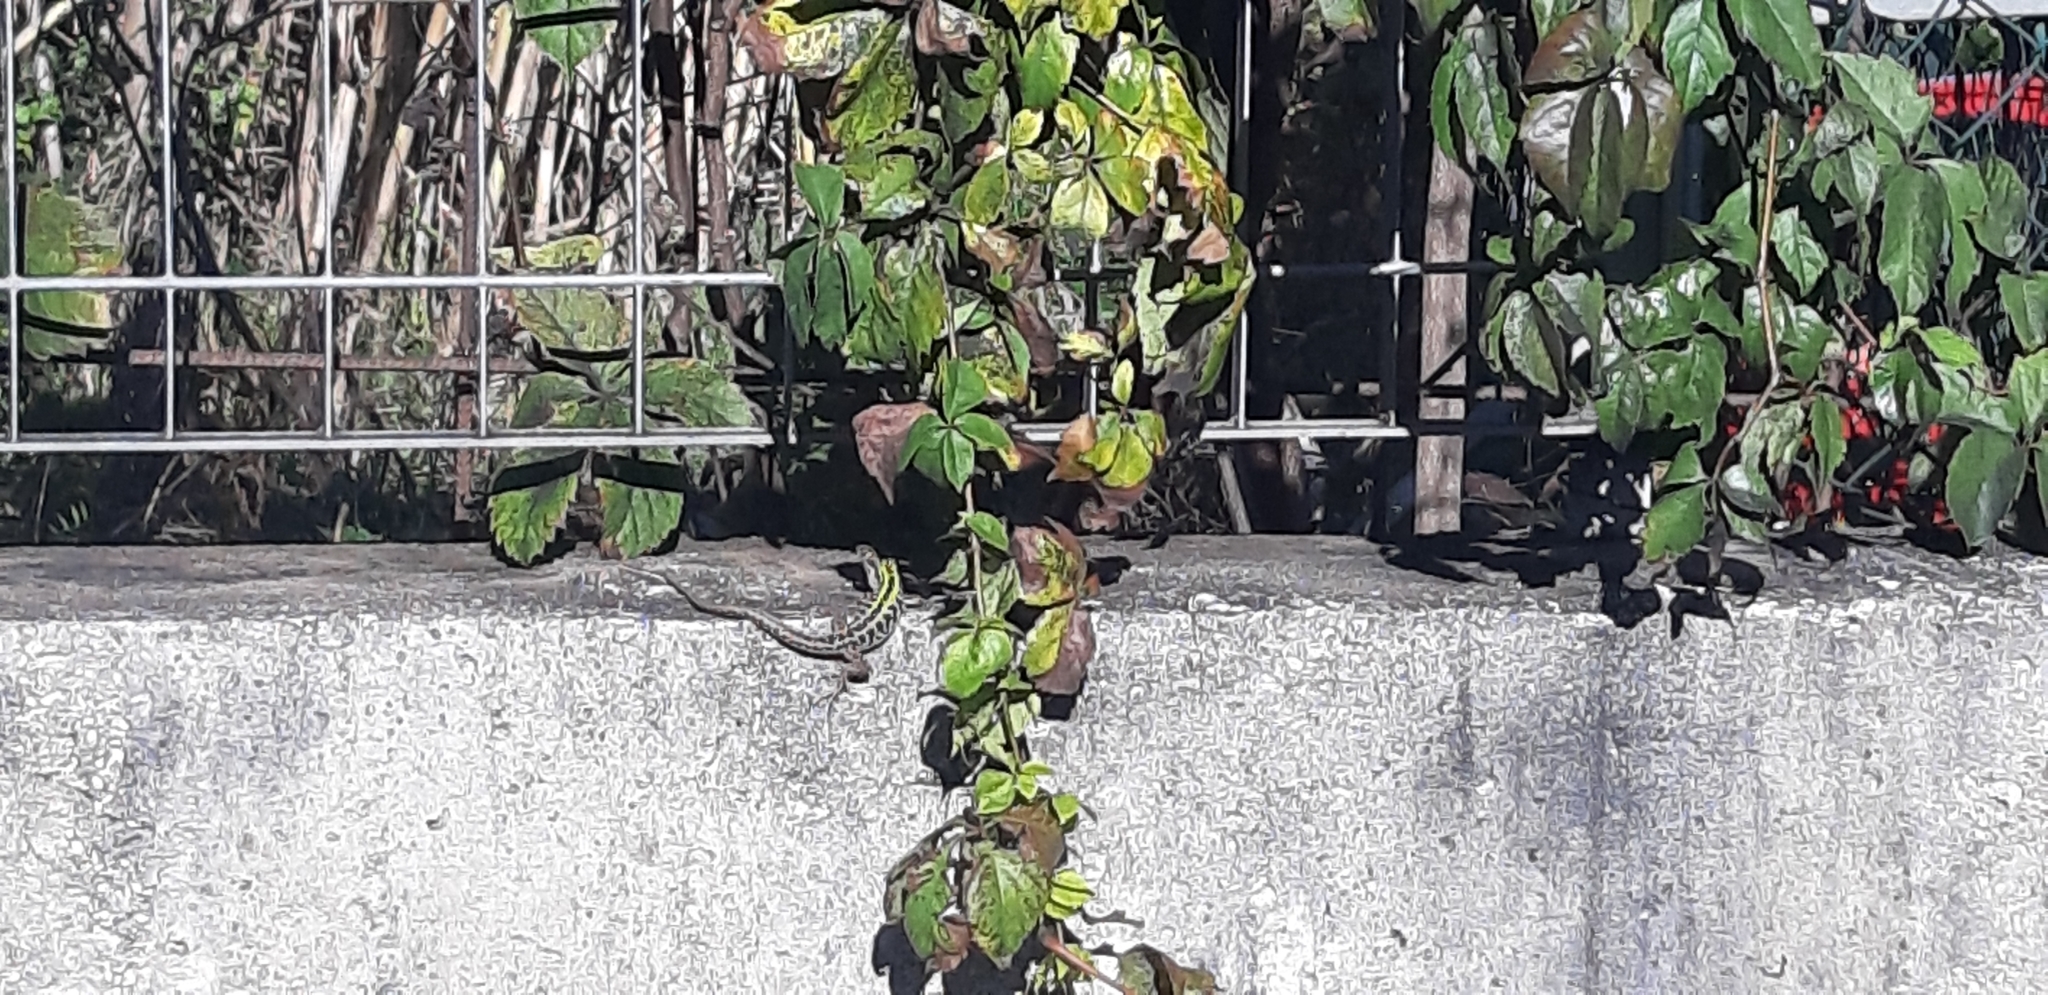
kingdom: Animalia
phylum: Chordata
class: Squamata
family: Lacertidae
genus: Podarcis
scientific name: Podarcis siculus
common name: Italian wall lizard
